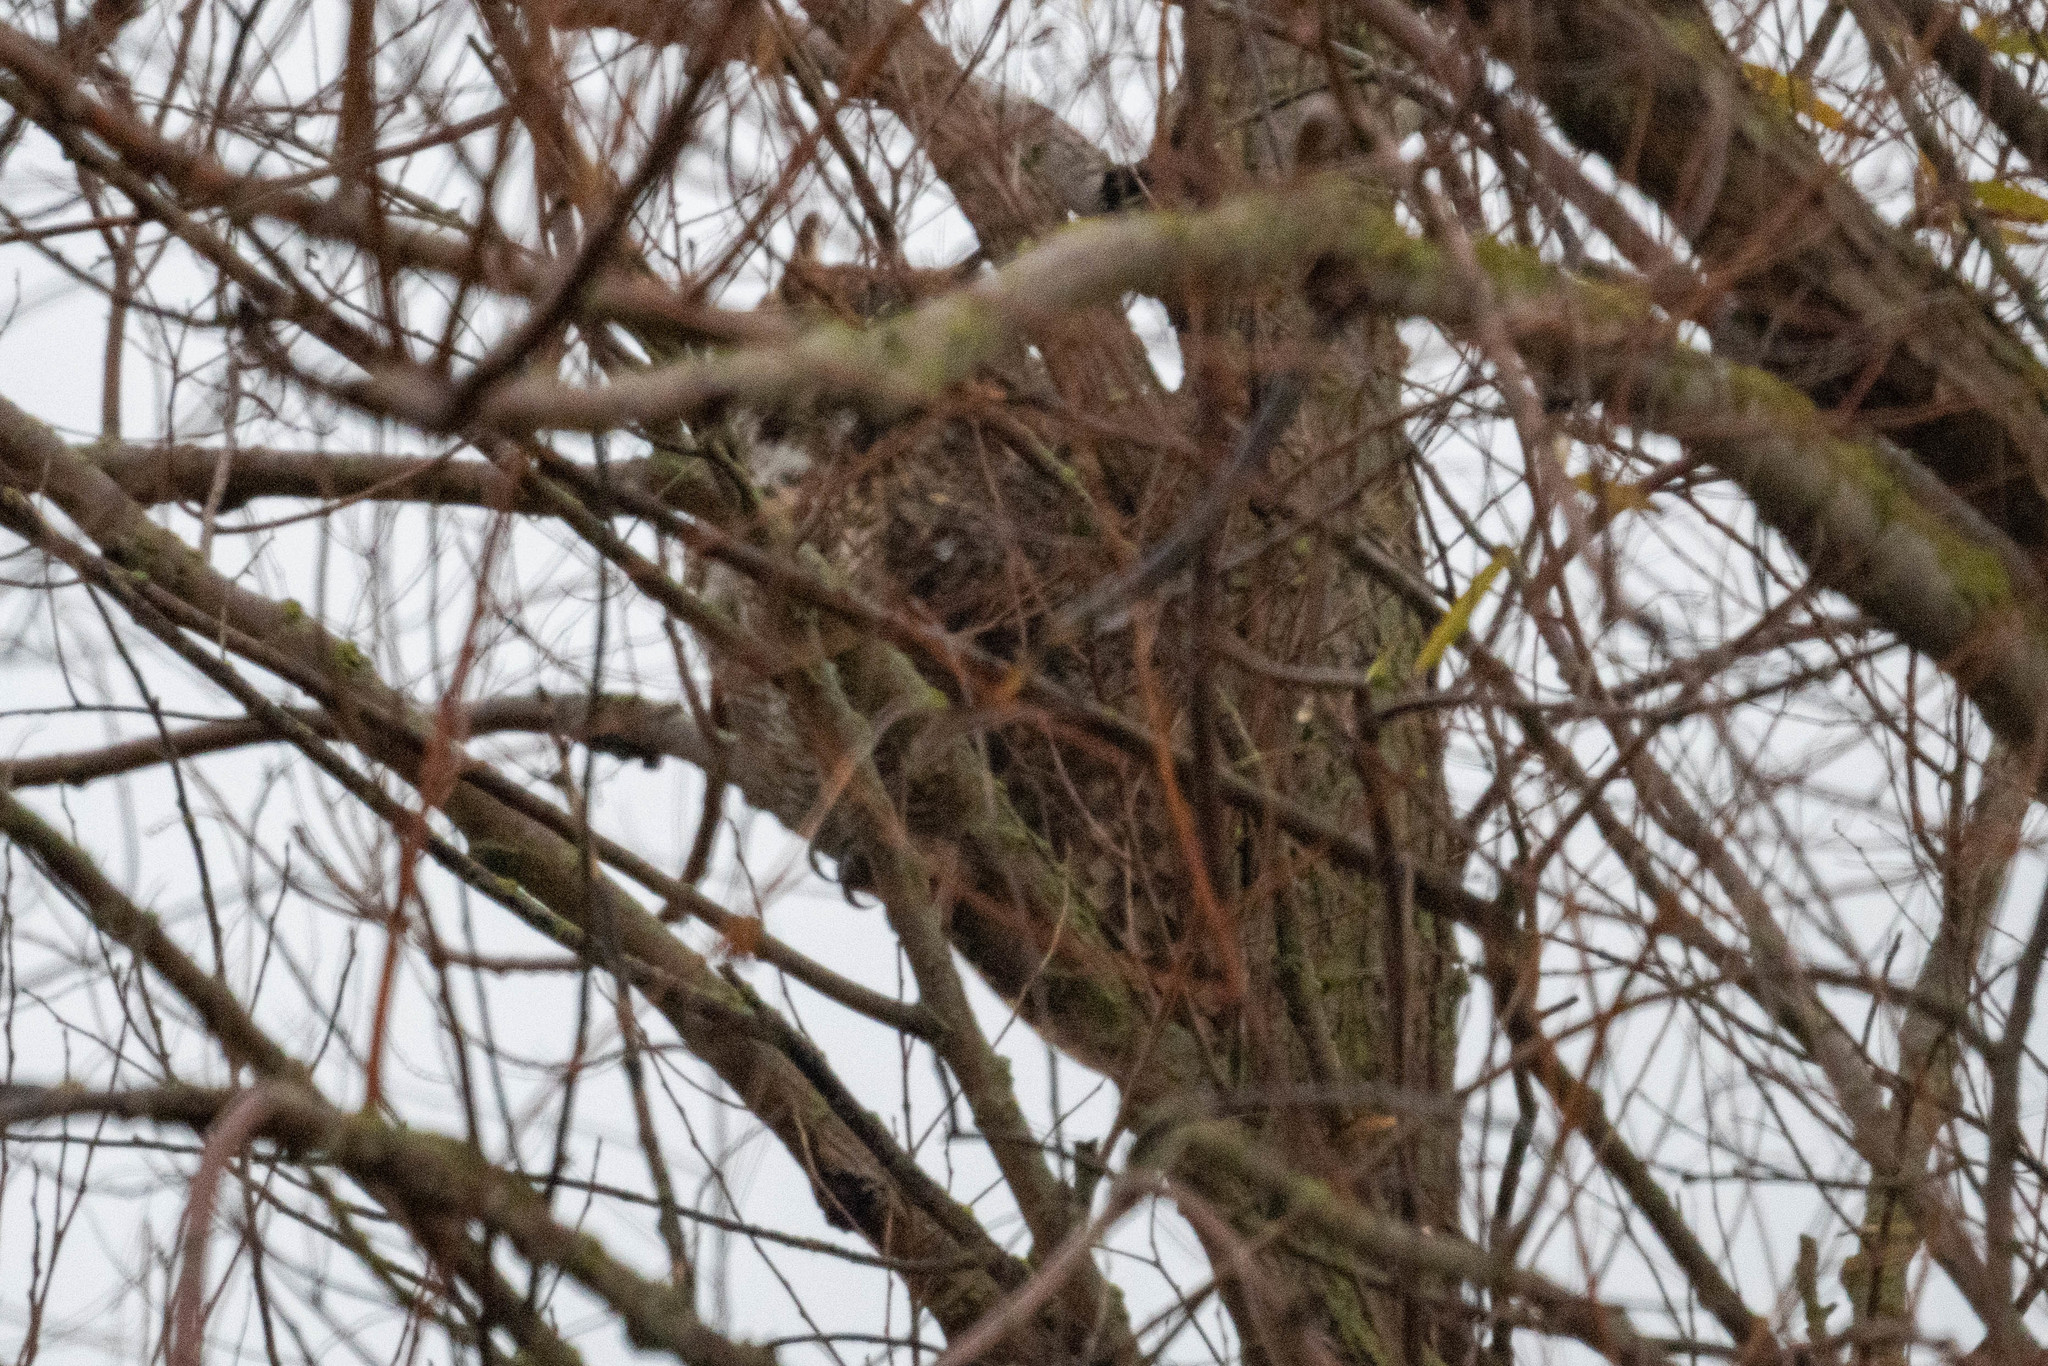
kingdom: Animalia
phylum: Chordata
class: Aves
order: Strigiformes
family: Strigidae
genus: Bubo
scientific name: Bubo virginianus
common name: Great horned owl
